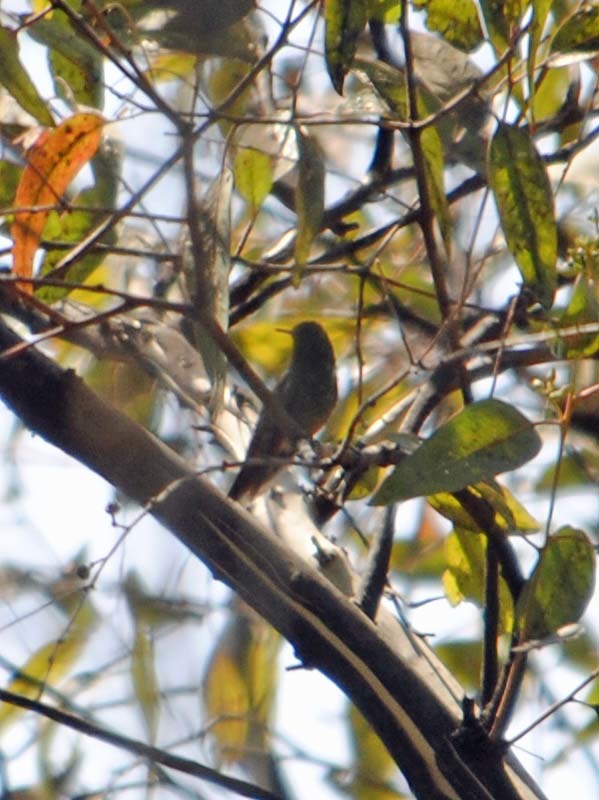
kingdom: Animalia
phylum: Chordata
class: Aves
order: Apodiformes
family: Trochilidae
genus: Saucerottia
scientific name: Saucerottia beryllina
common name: Berylline hummingbird
